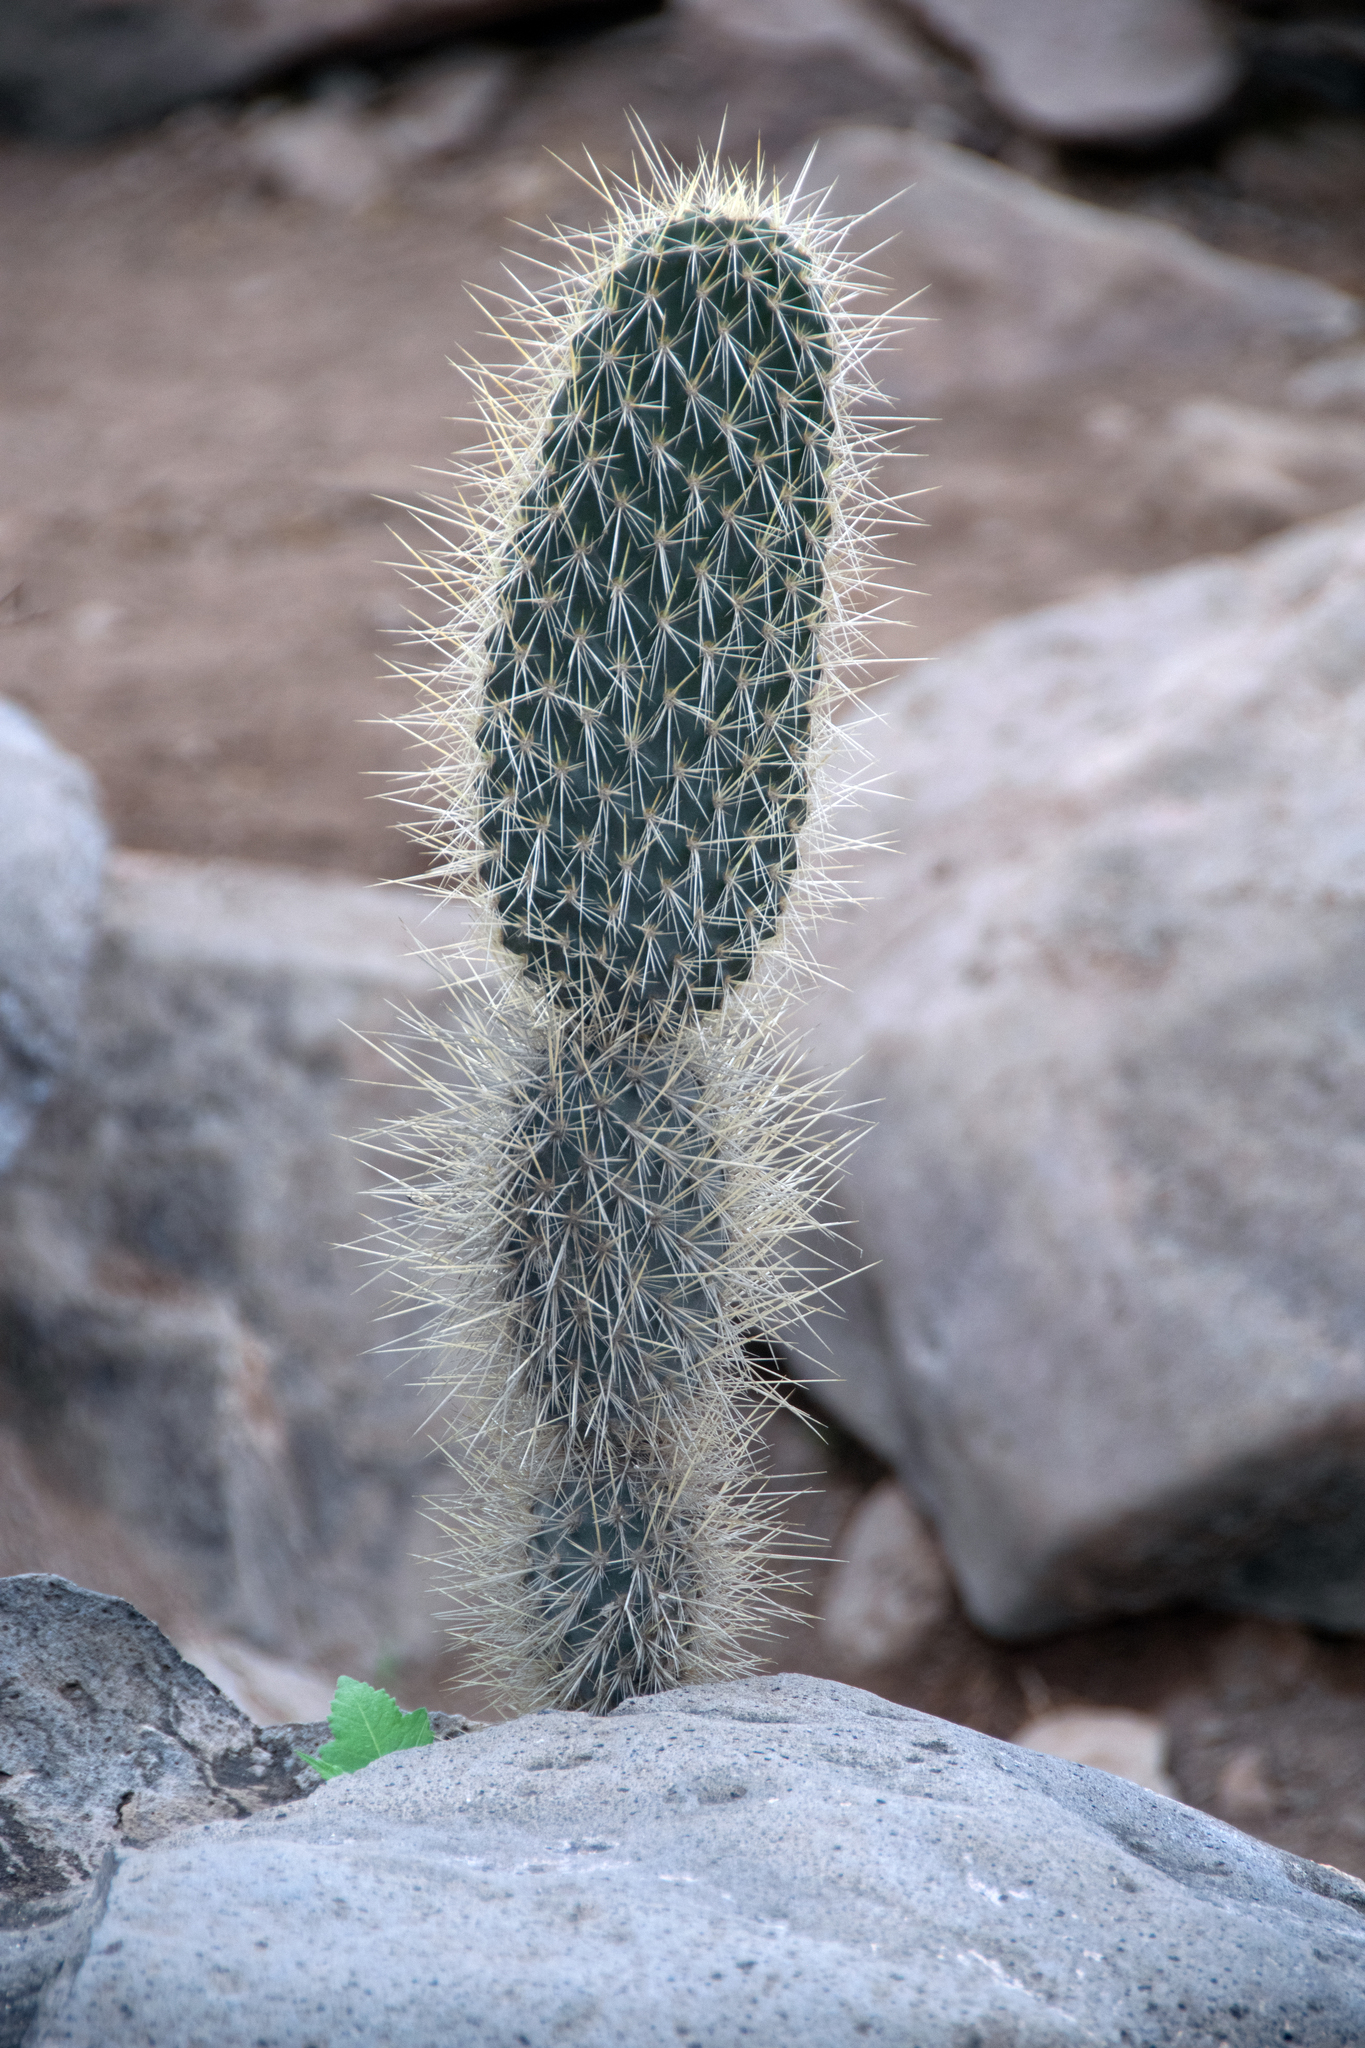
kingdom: Plantae
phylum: Tracheophyta
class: Magnoliopsida
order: Caryophyllales
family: Cactaceae
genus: Opuntia
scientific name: Opuntia galapageia
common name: Galápagos prickly pear
